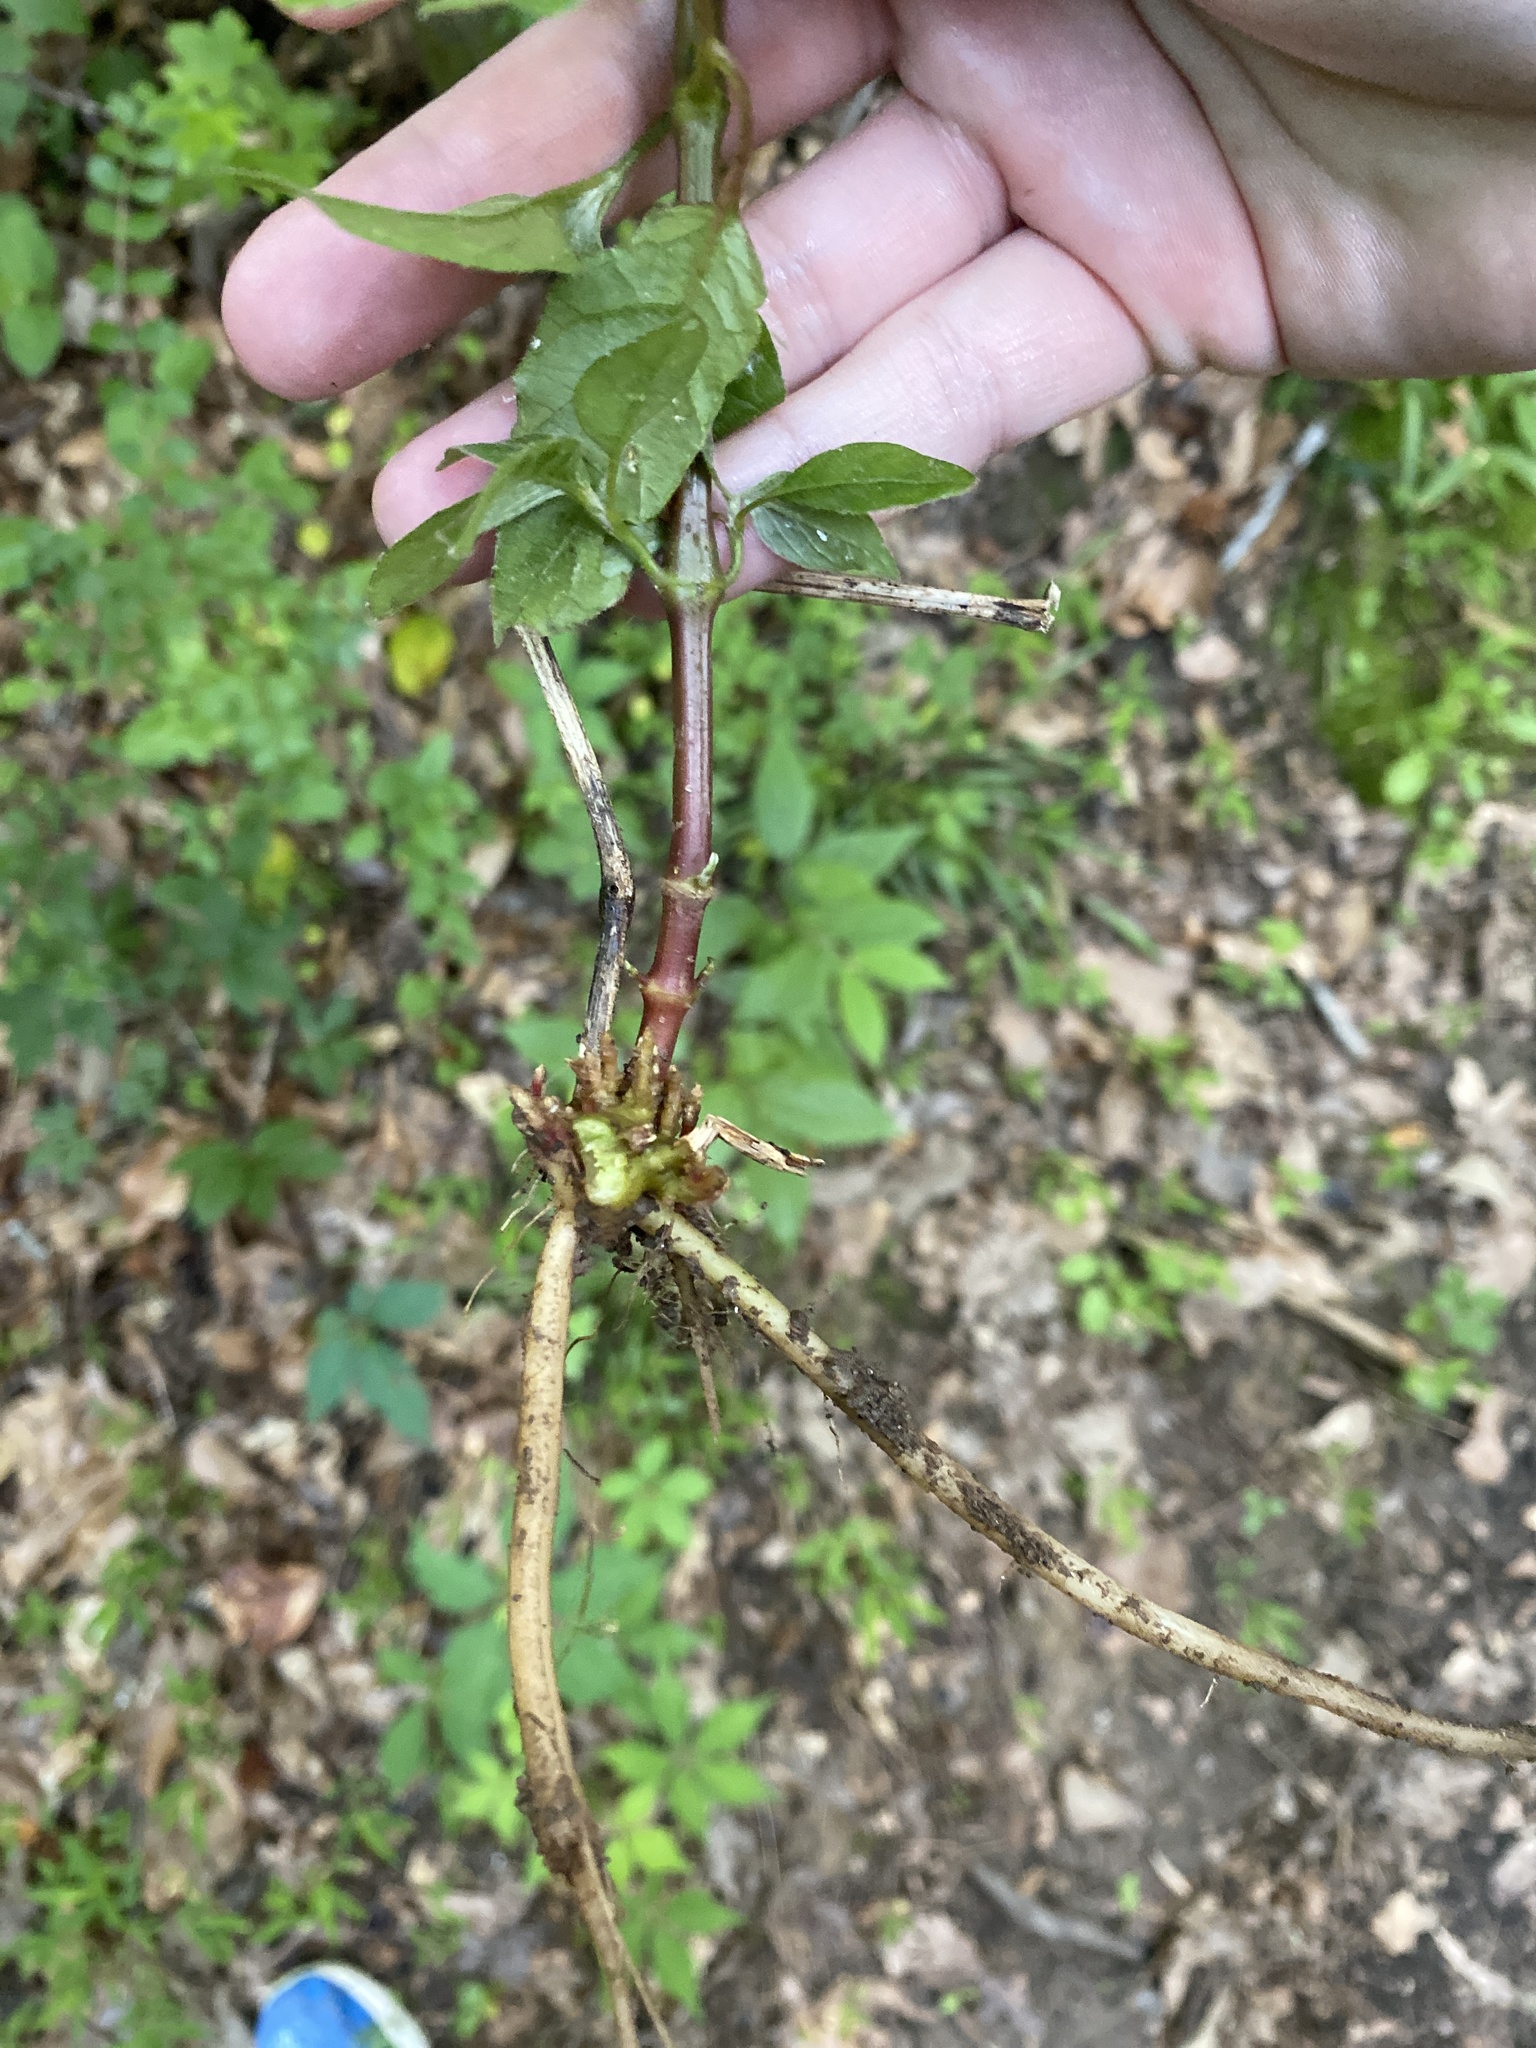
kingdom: Plantae
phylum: Tracheophyta
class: Magnoliopsida
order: Caryophyllales
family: Amaranthaceae
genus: Achyranthes
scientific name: Achyranthes bidentata
